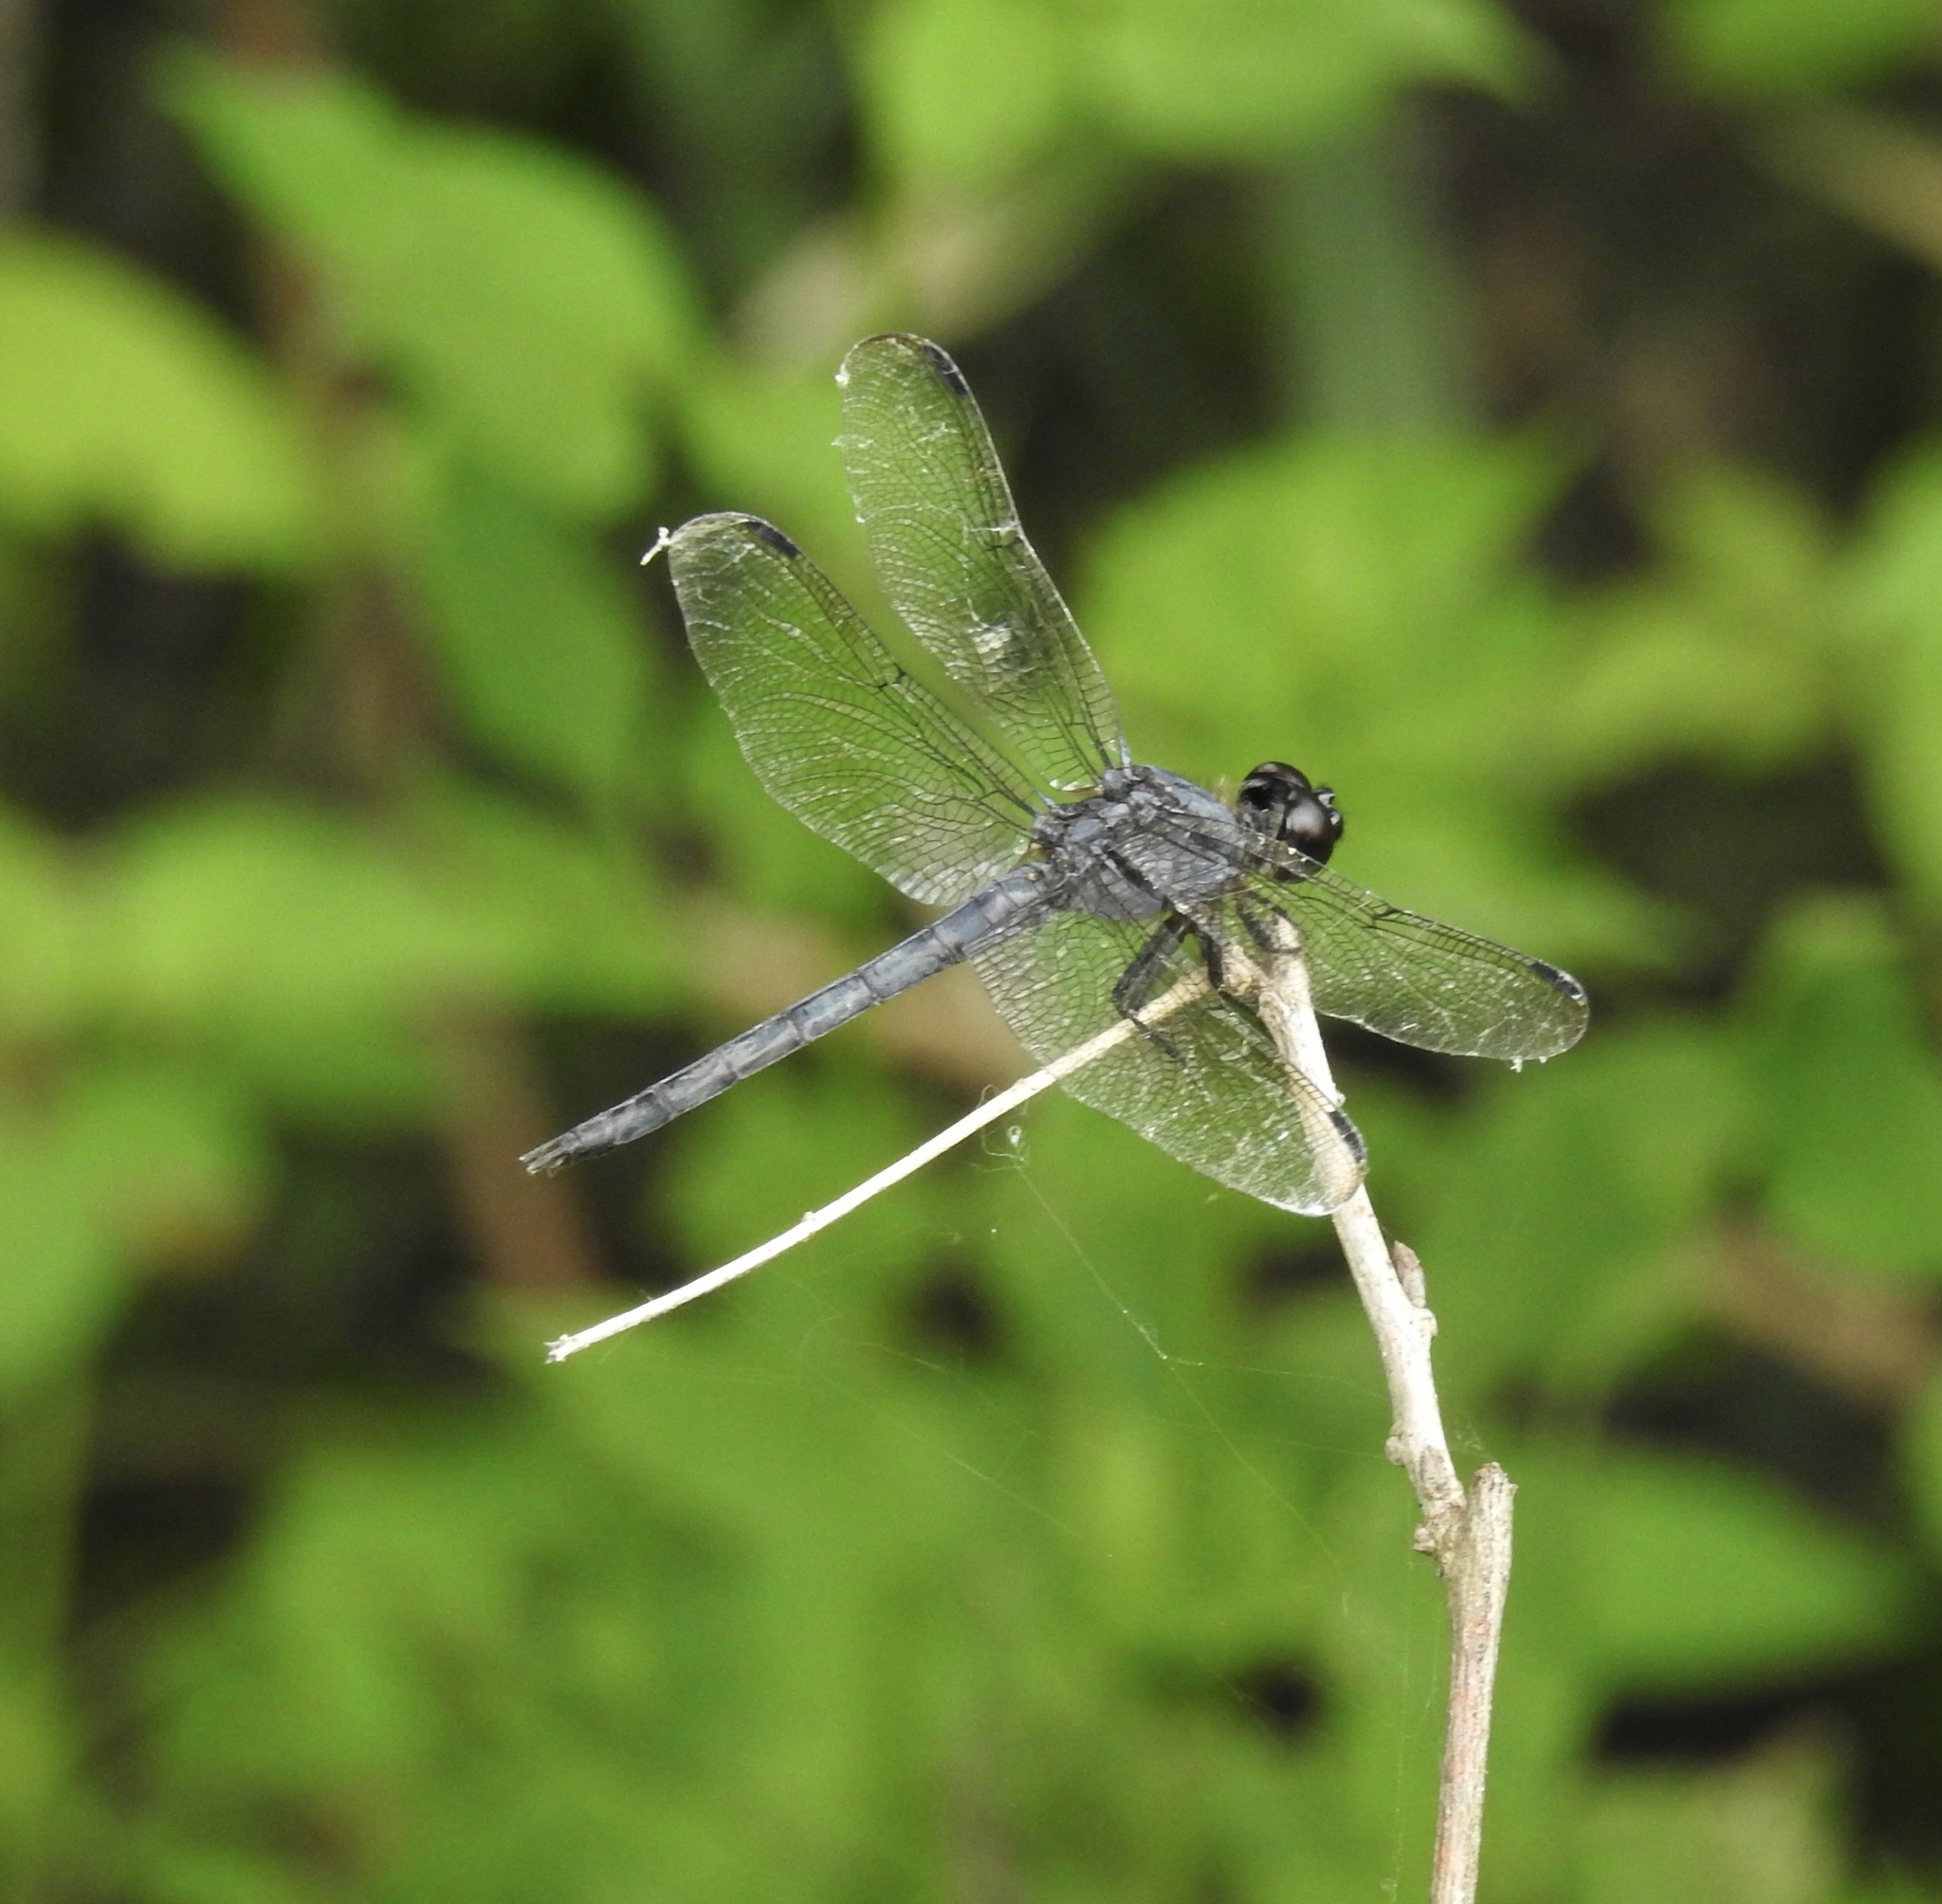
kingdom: Animalia
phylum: Arthropoda
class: Insecta
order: Odonata
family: Libellulidae
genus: Libellula
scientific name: Libellula incesta
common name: Slaty skimmer
